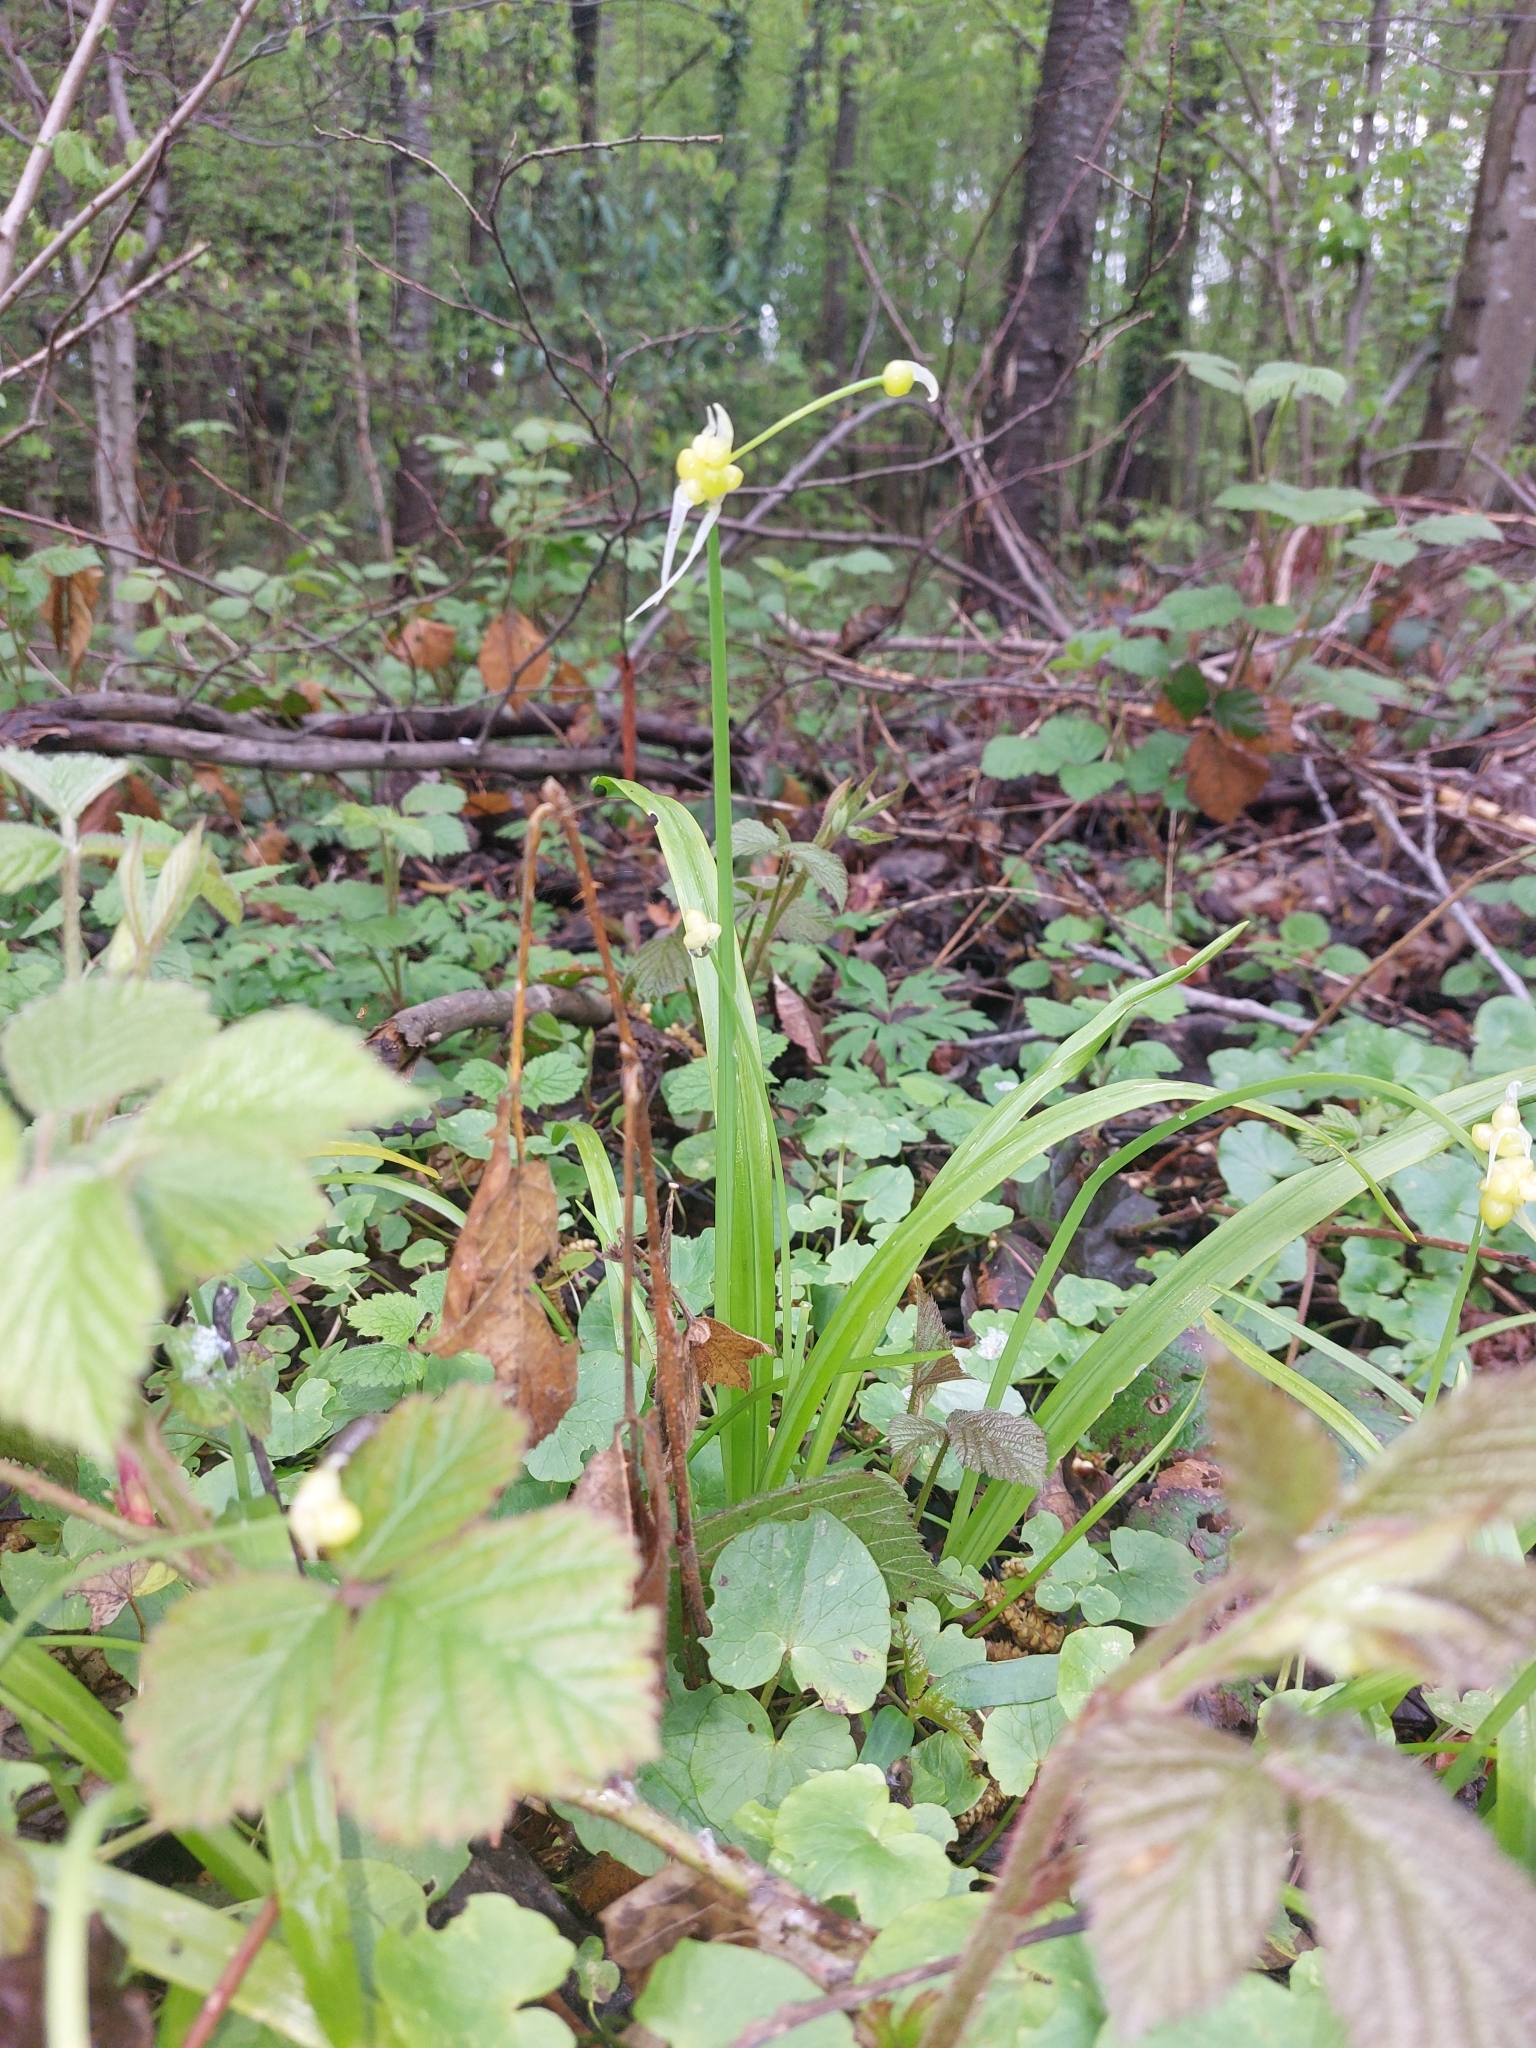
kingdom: Plantae
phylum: Tracheophyta
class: Liliopsida
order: Asparagales
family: Amaryllidaceae
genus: Allium
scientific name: Allium paradoxum
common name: Few-flowered garlic
